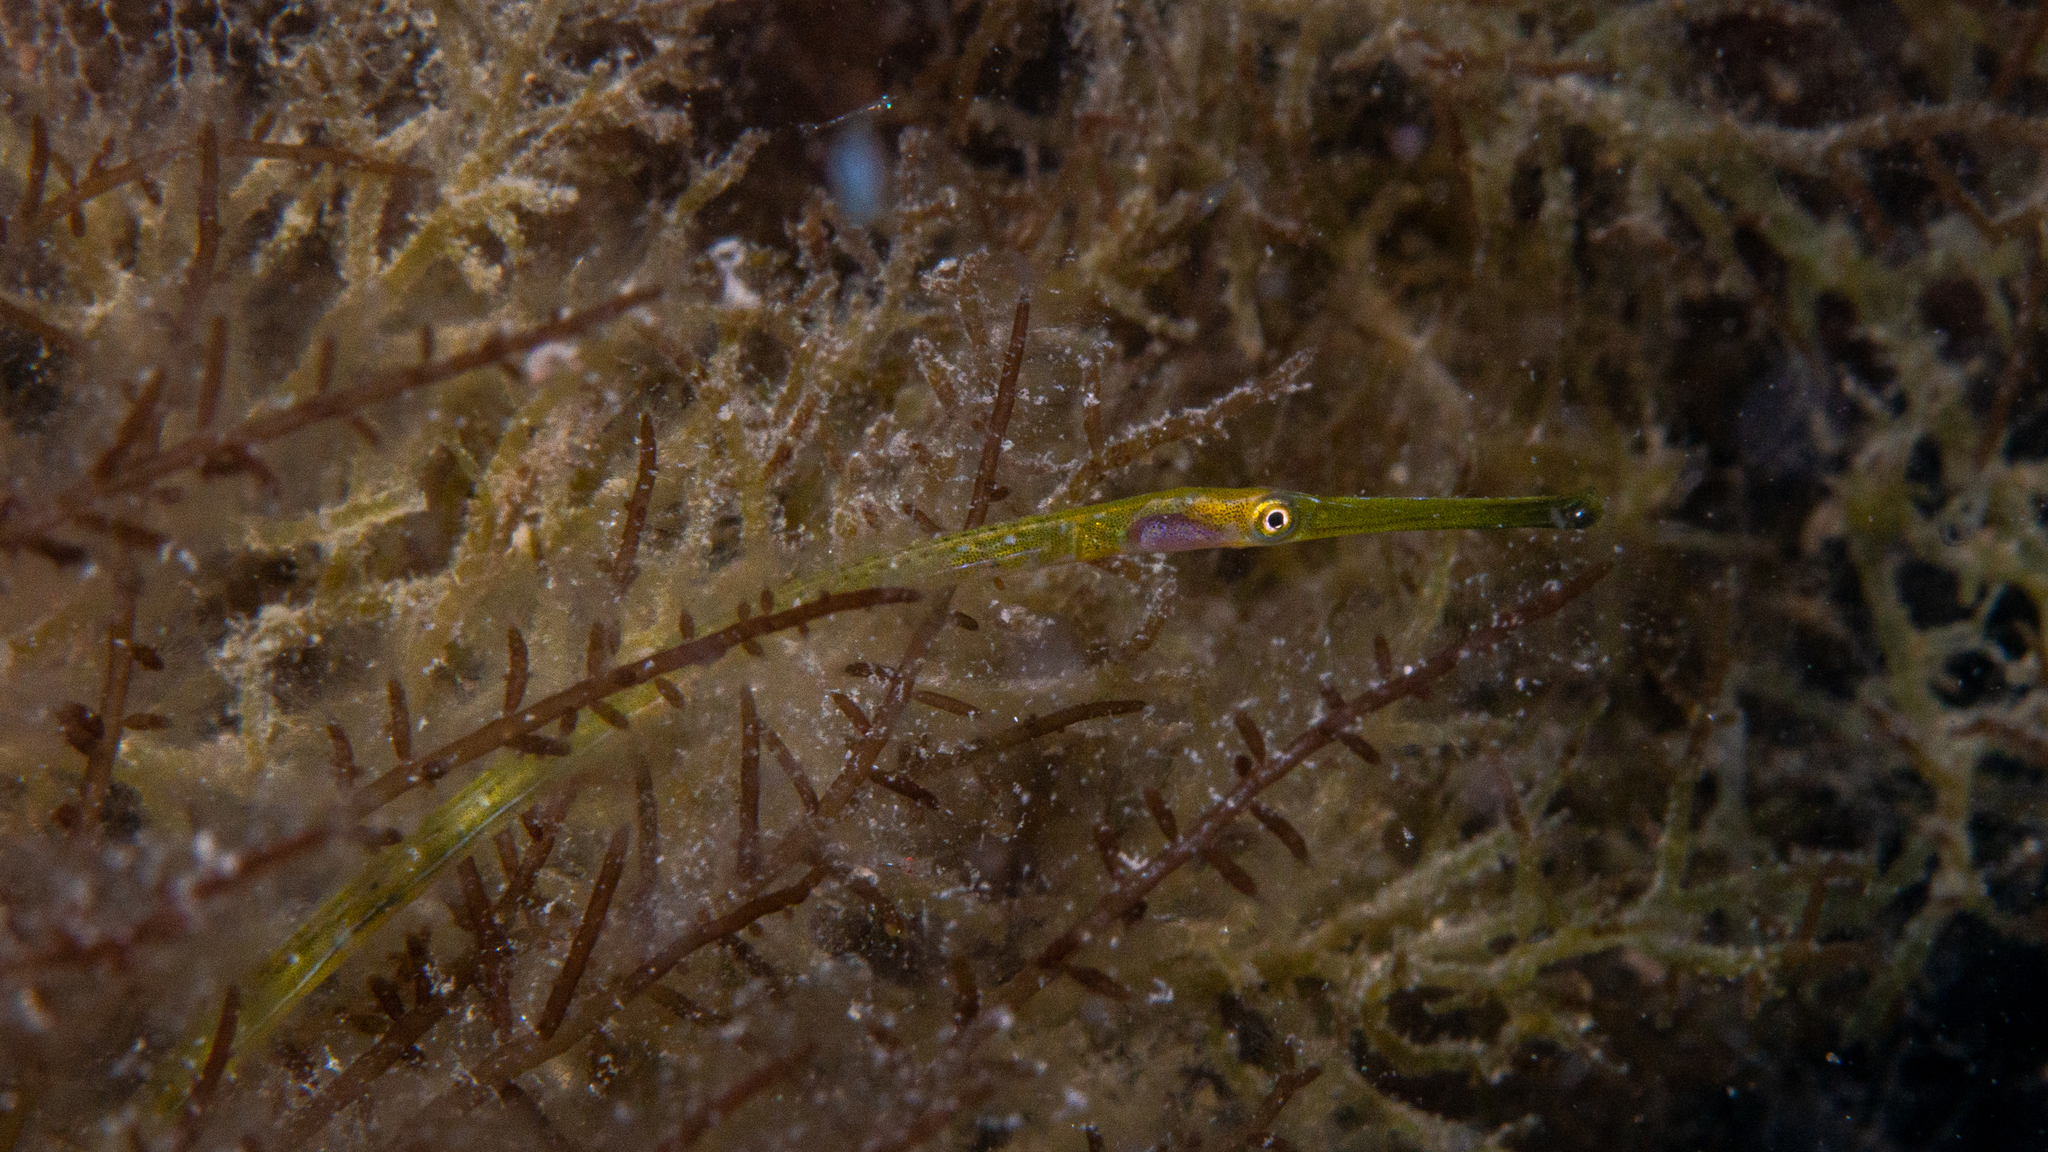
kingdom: Animalia
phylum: Chordata
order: Syngnathiformes
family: Syngnathidae
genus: Stigmatopora
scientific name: Stigmatopora argus
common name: Gulf pipefish
